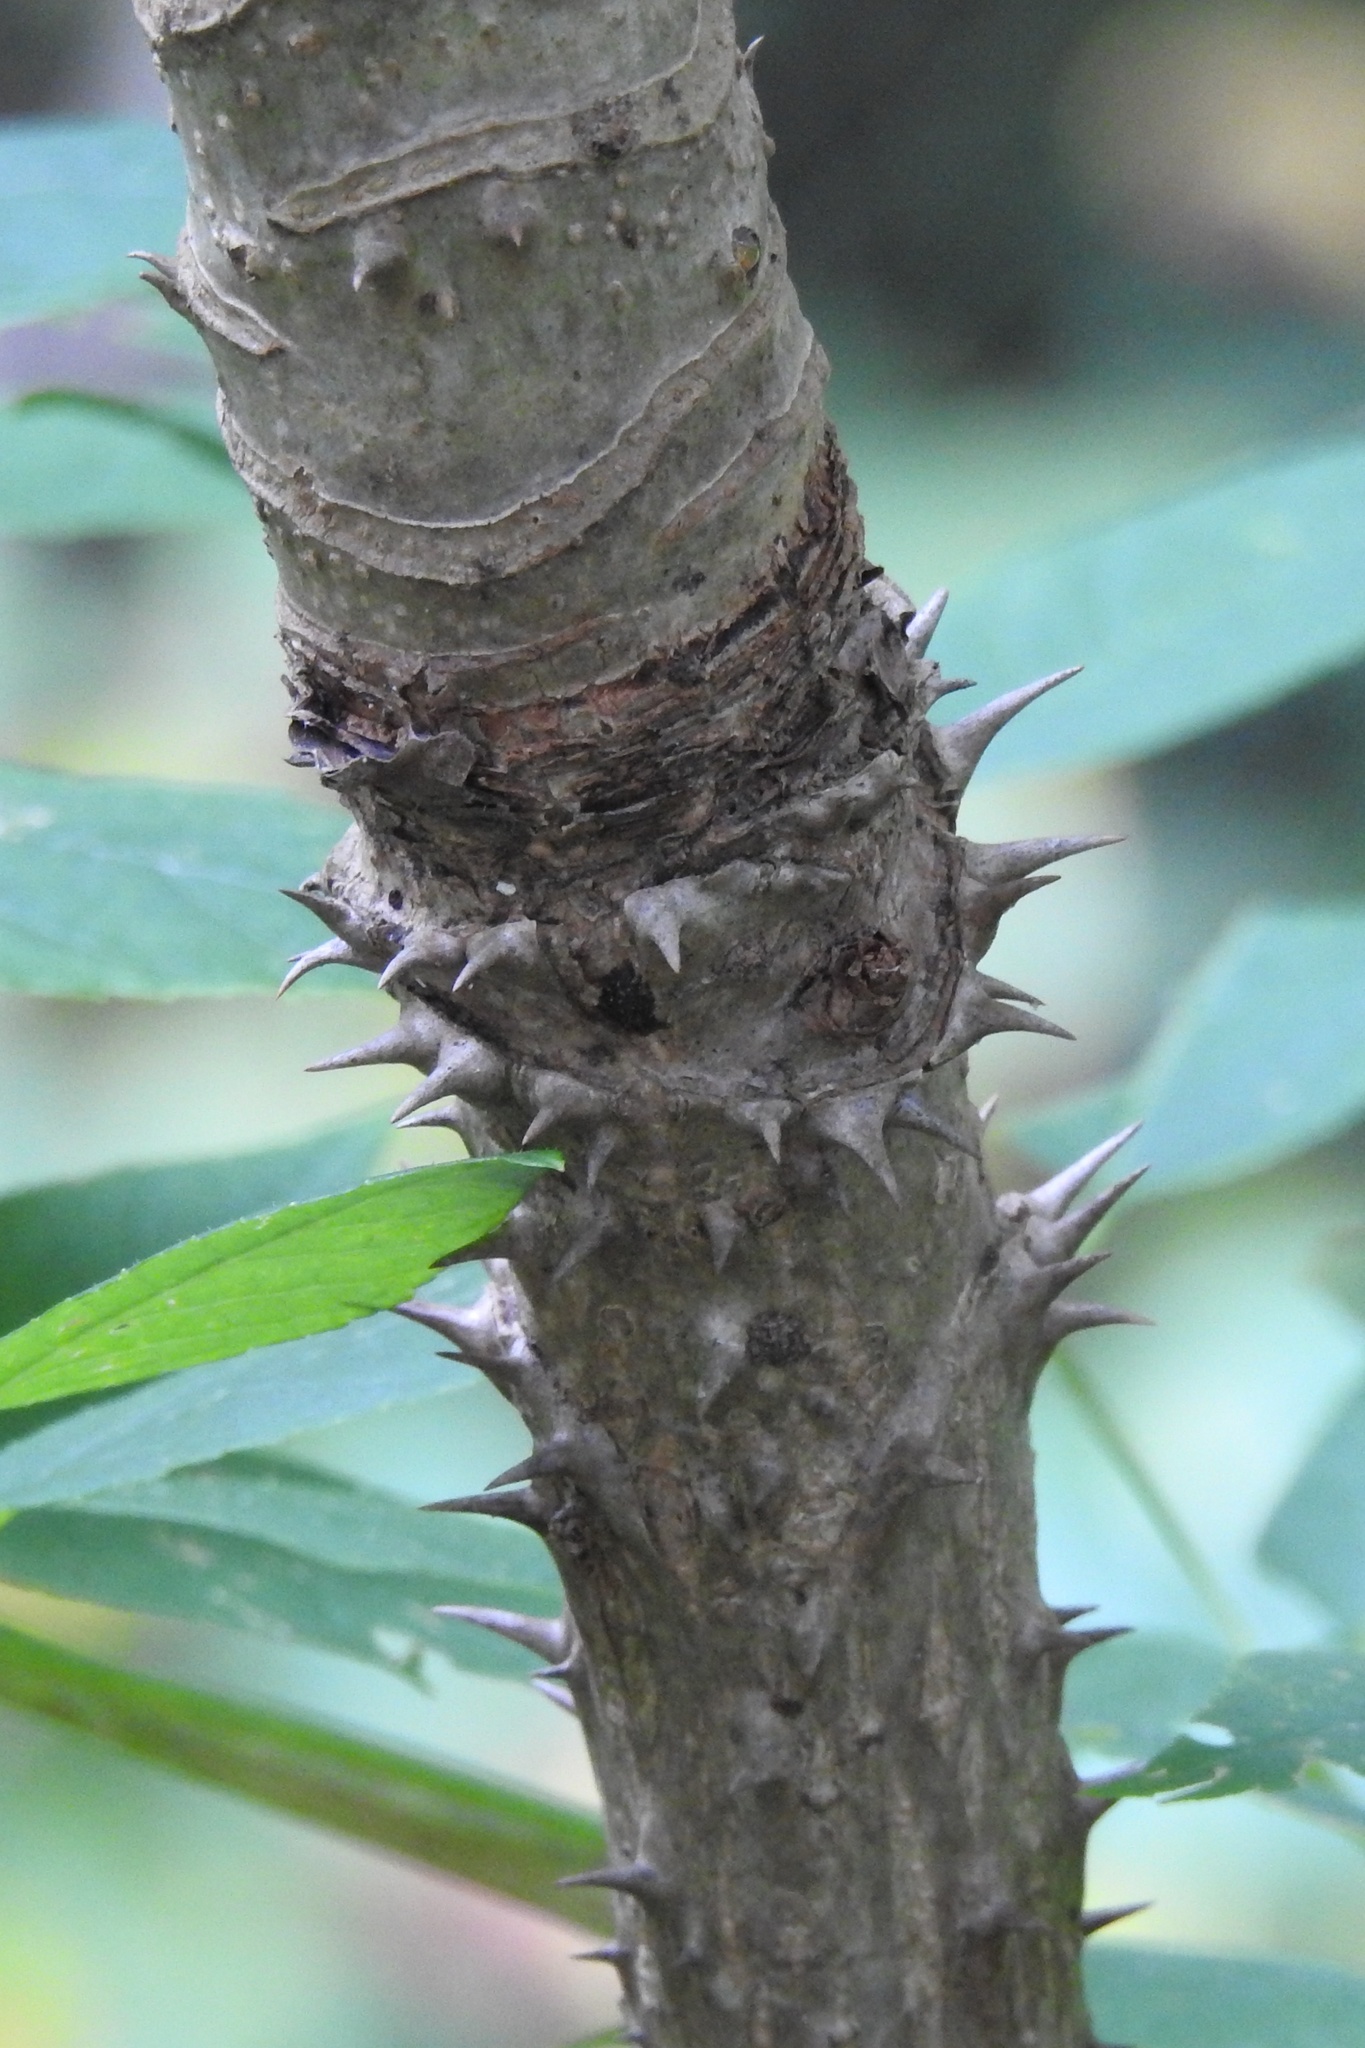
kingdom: Plantae
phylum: Tracheophyta
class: Magnoliopsida
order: Apiales
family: Araliaceae
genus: Aralia
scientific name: Aralia spinosa
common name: Hercules'-club
